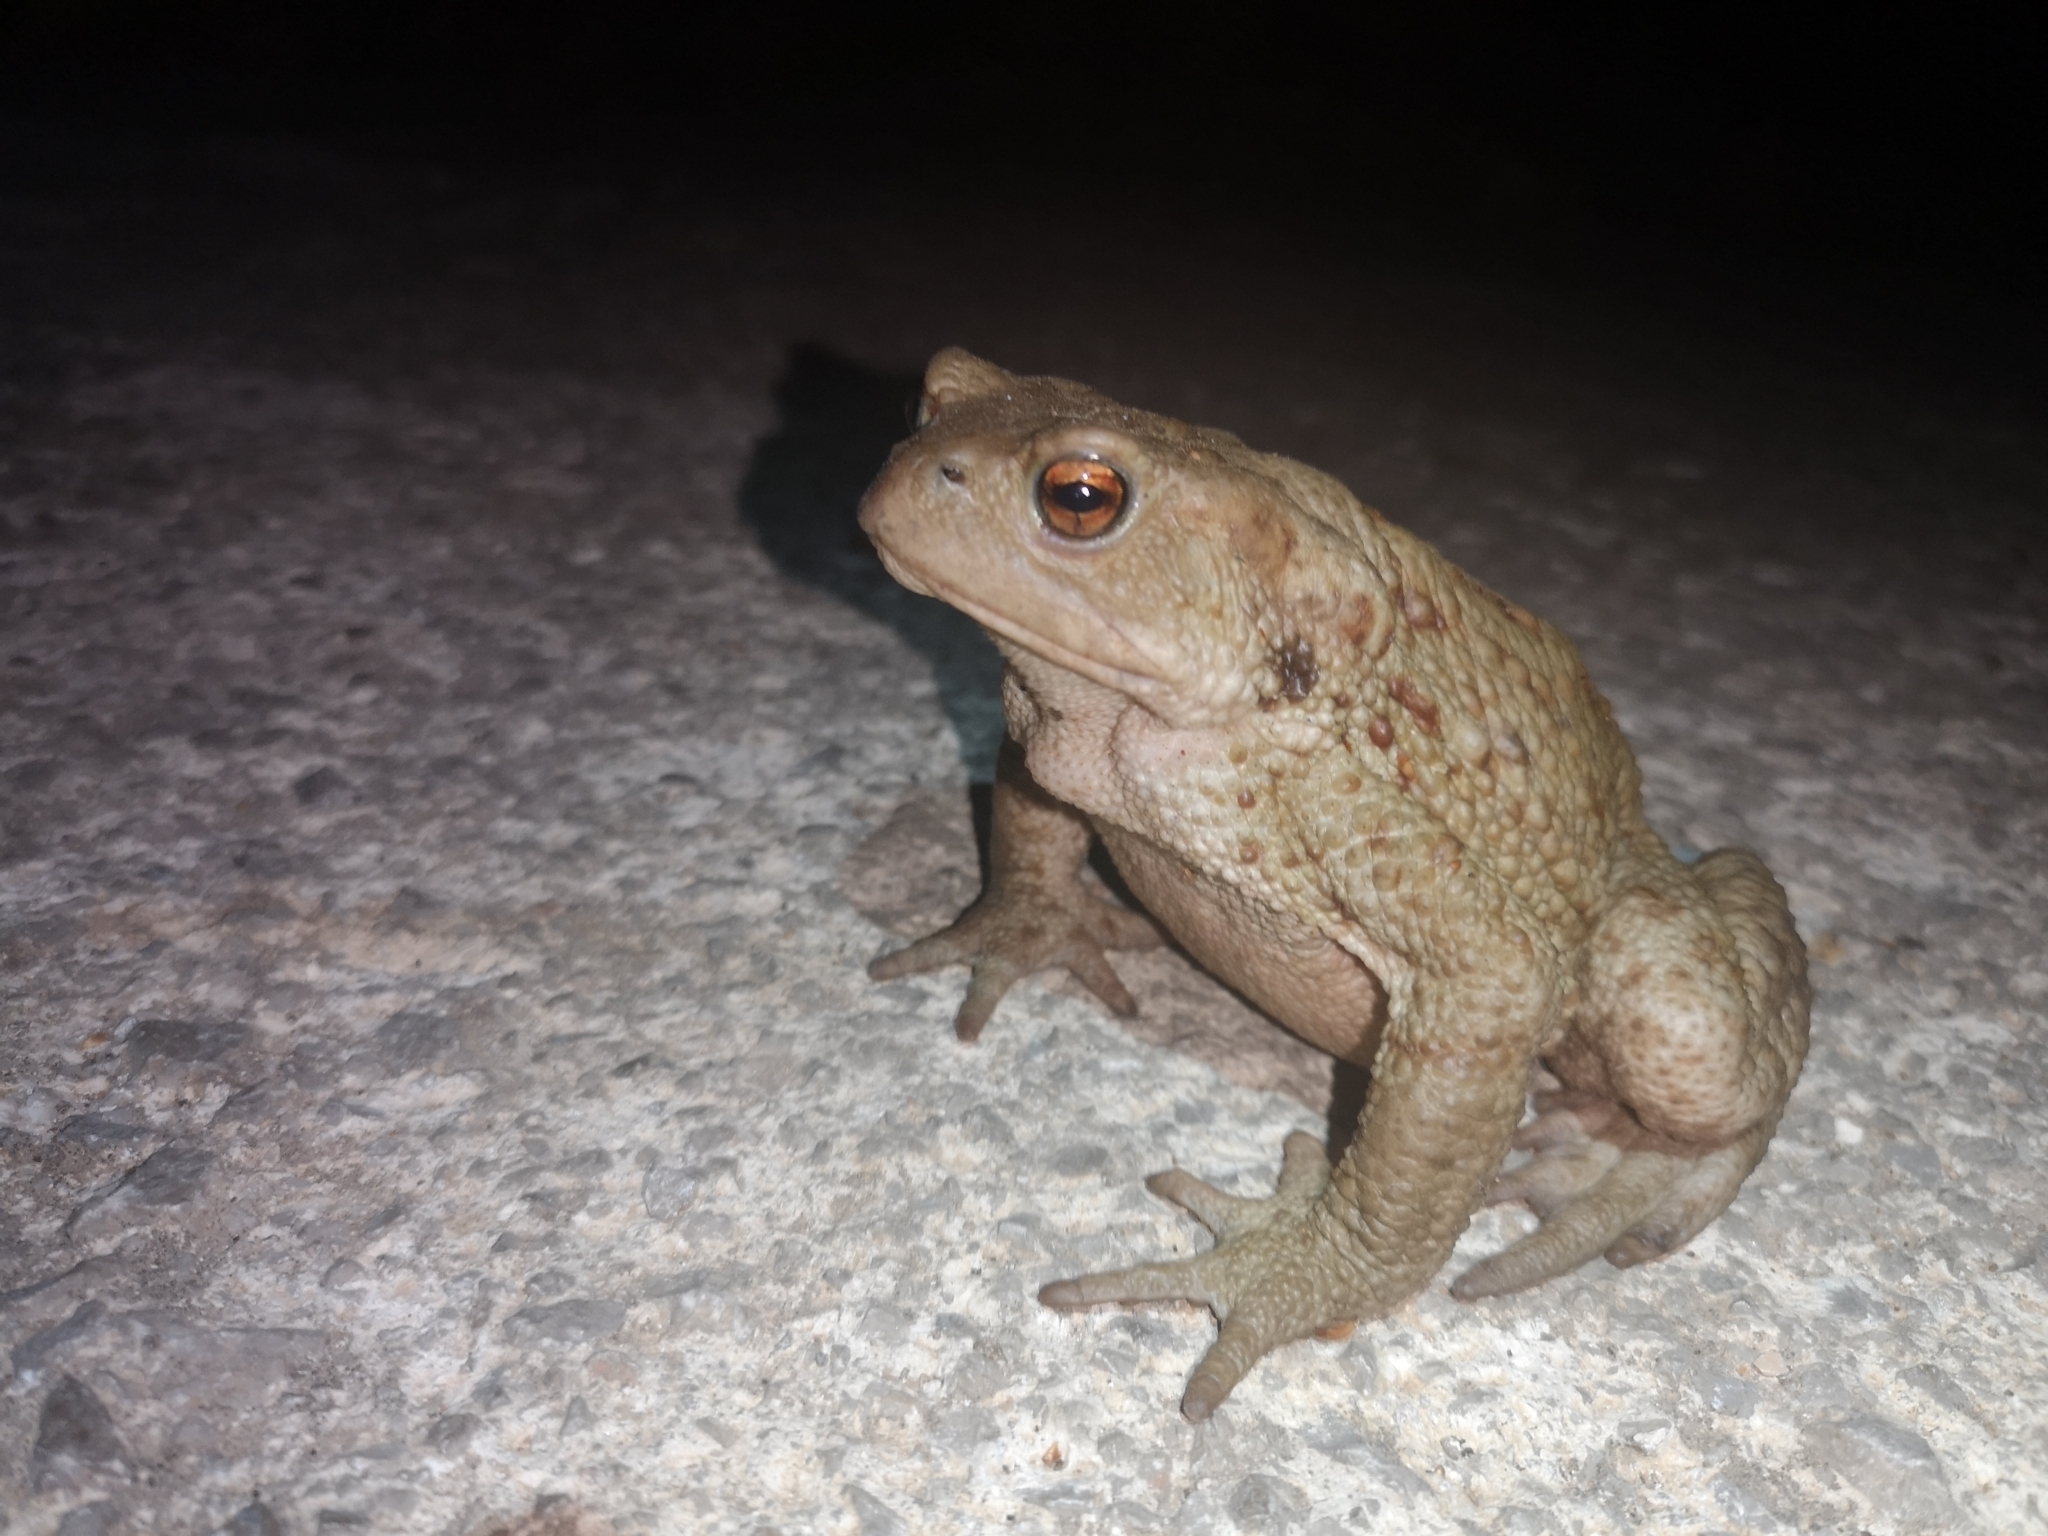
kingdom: Animalia
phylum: Chordata
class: Amphibia
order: Anura
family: Bufonidae
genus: Bufo
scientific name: Bufo bufo
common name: Common toad
